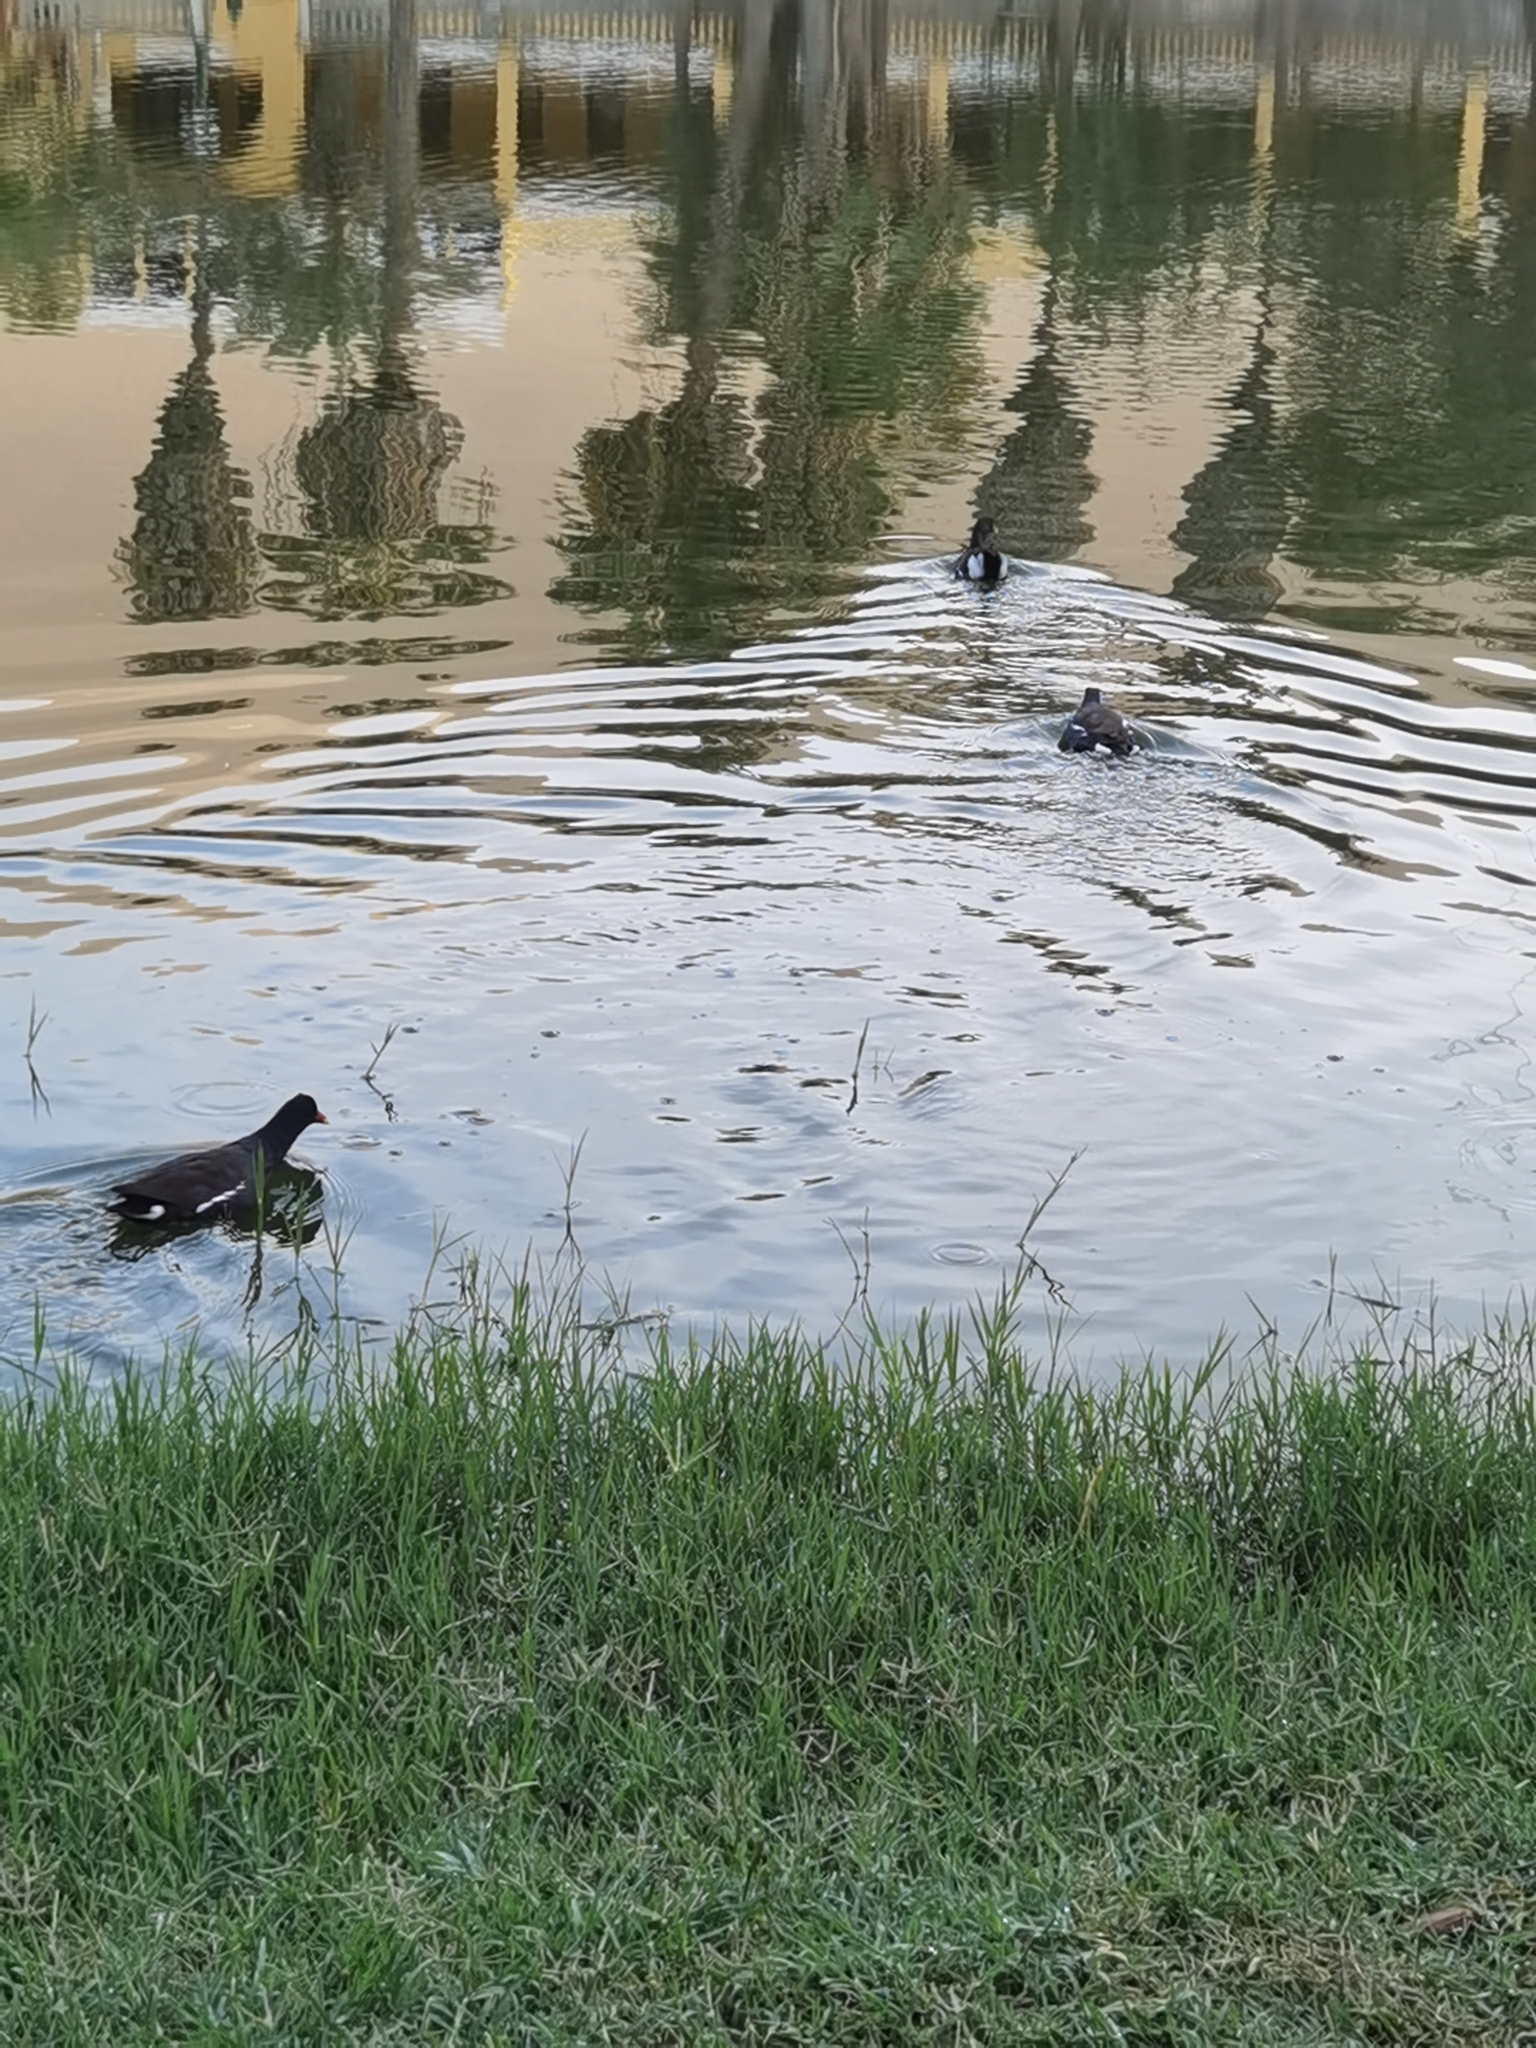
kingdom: Animalia
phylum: Chordata
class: Aves
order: Gruiformes
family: Rallidae
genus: Gallinula
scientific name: Gallinula chloropus
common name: Common moorhen
